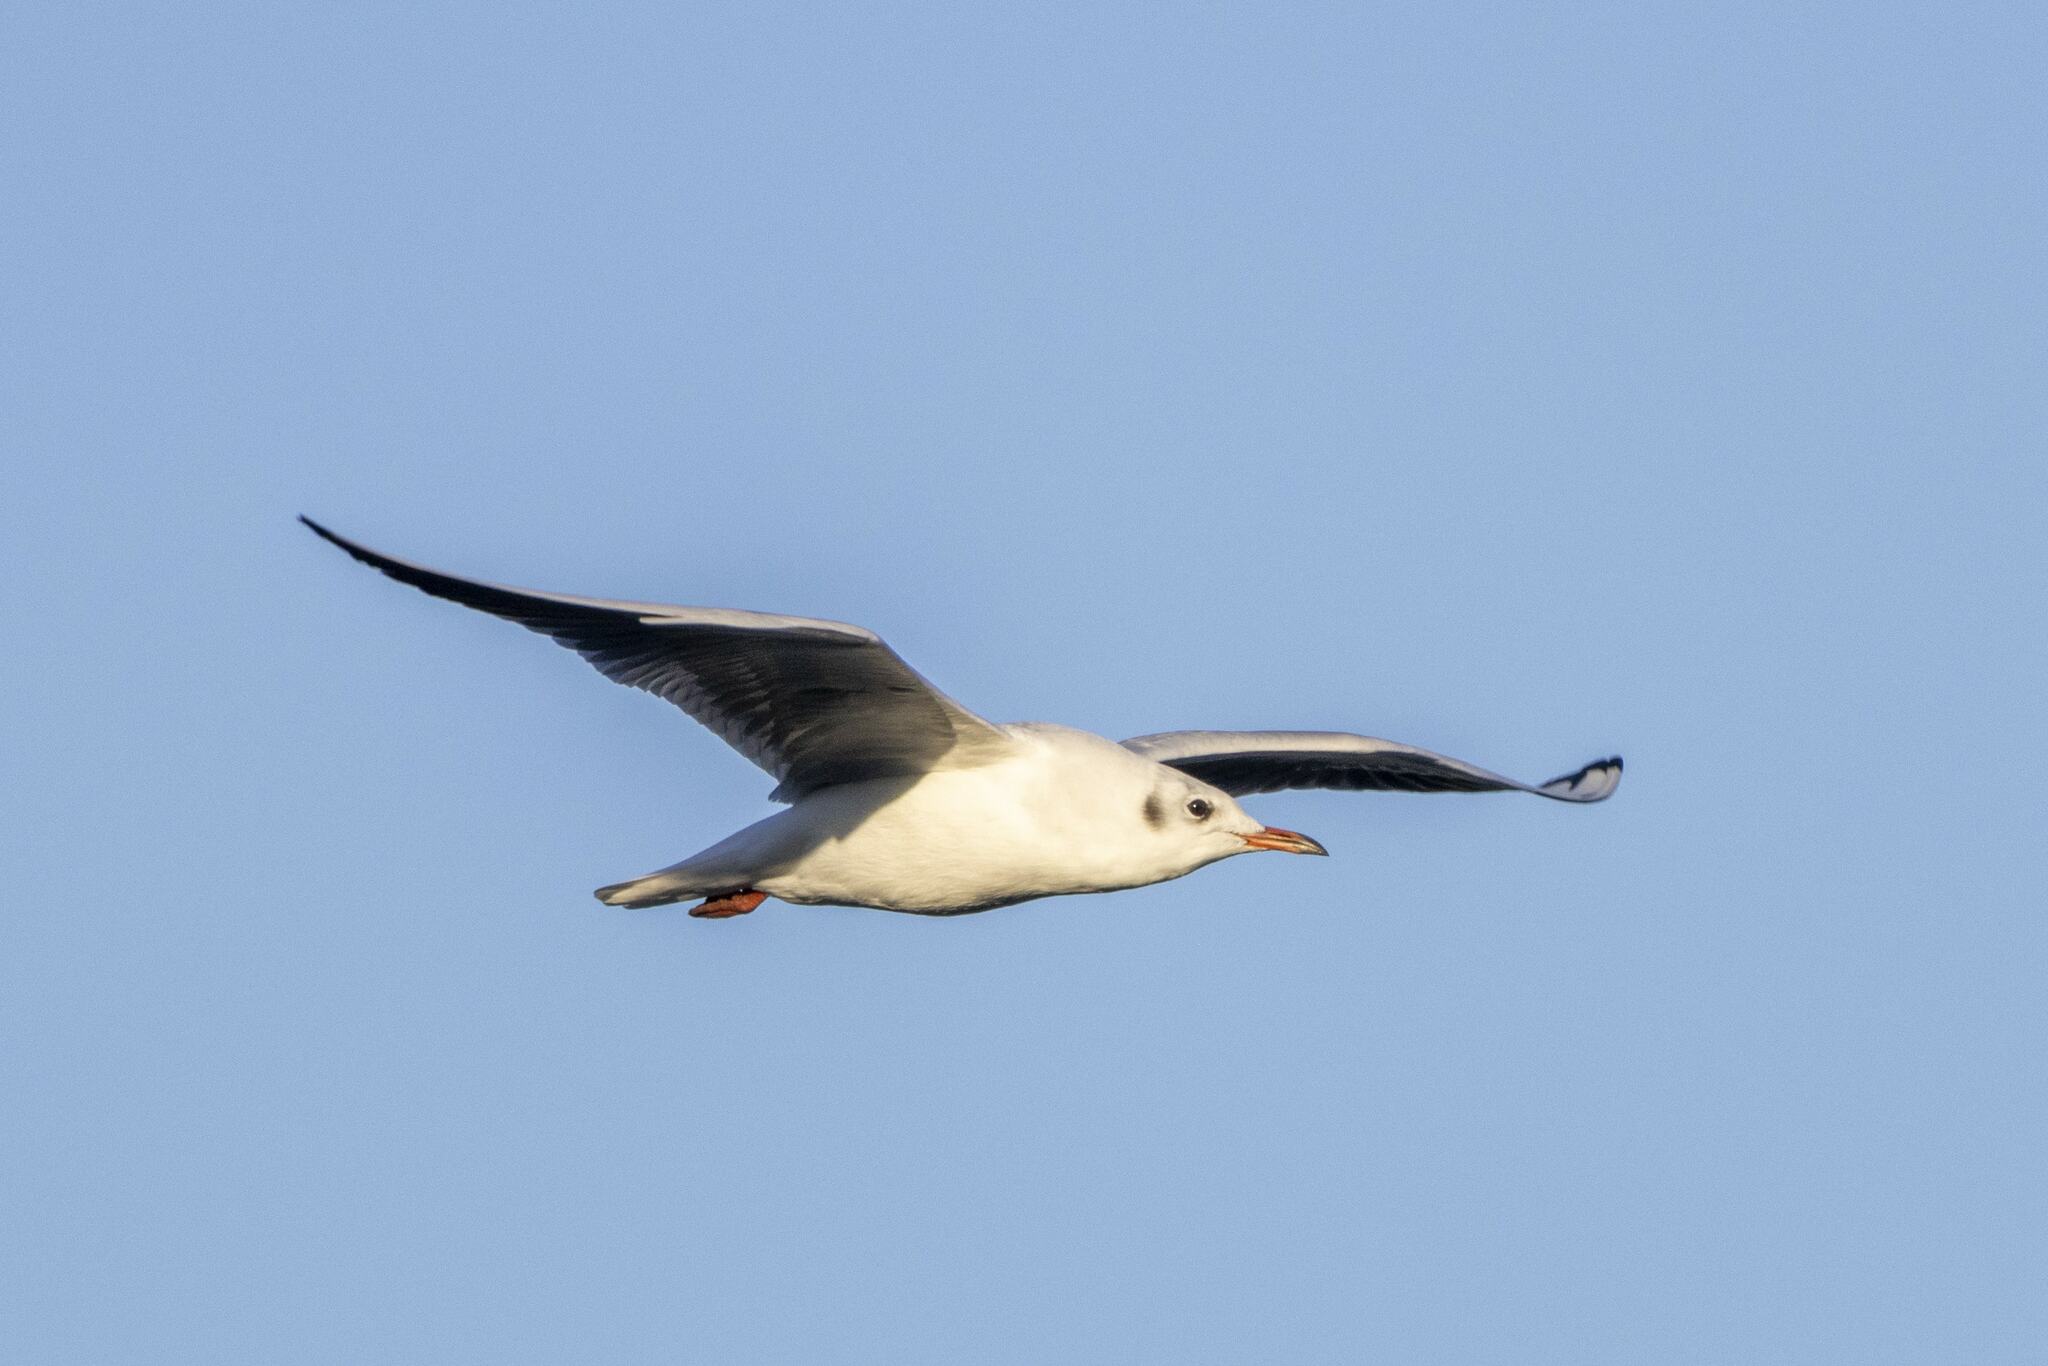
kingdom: Animalia
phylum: Chordata
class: Aves
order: Charadriiformes
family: Laridae
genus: Chroicocephalus
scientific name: Chroicocephalus ridibundus
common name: Black-headed gull
